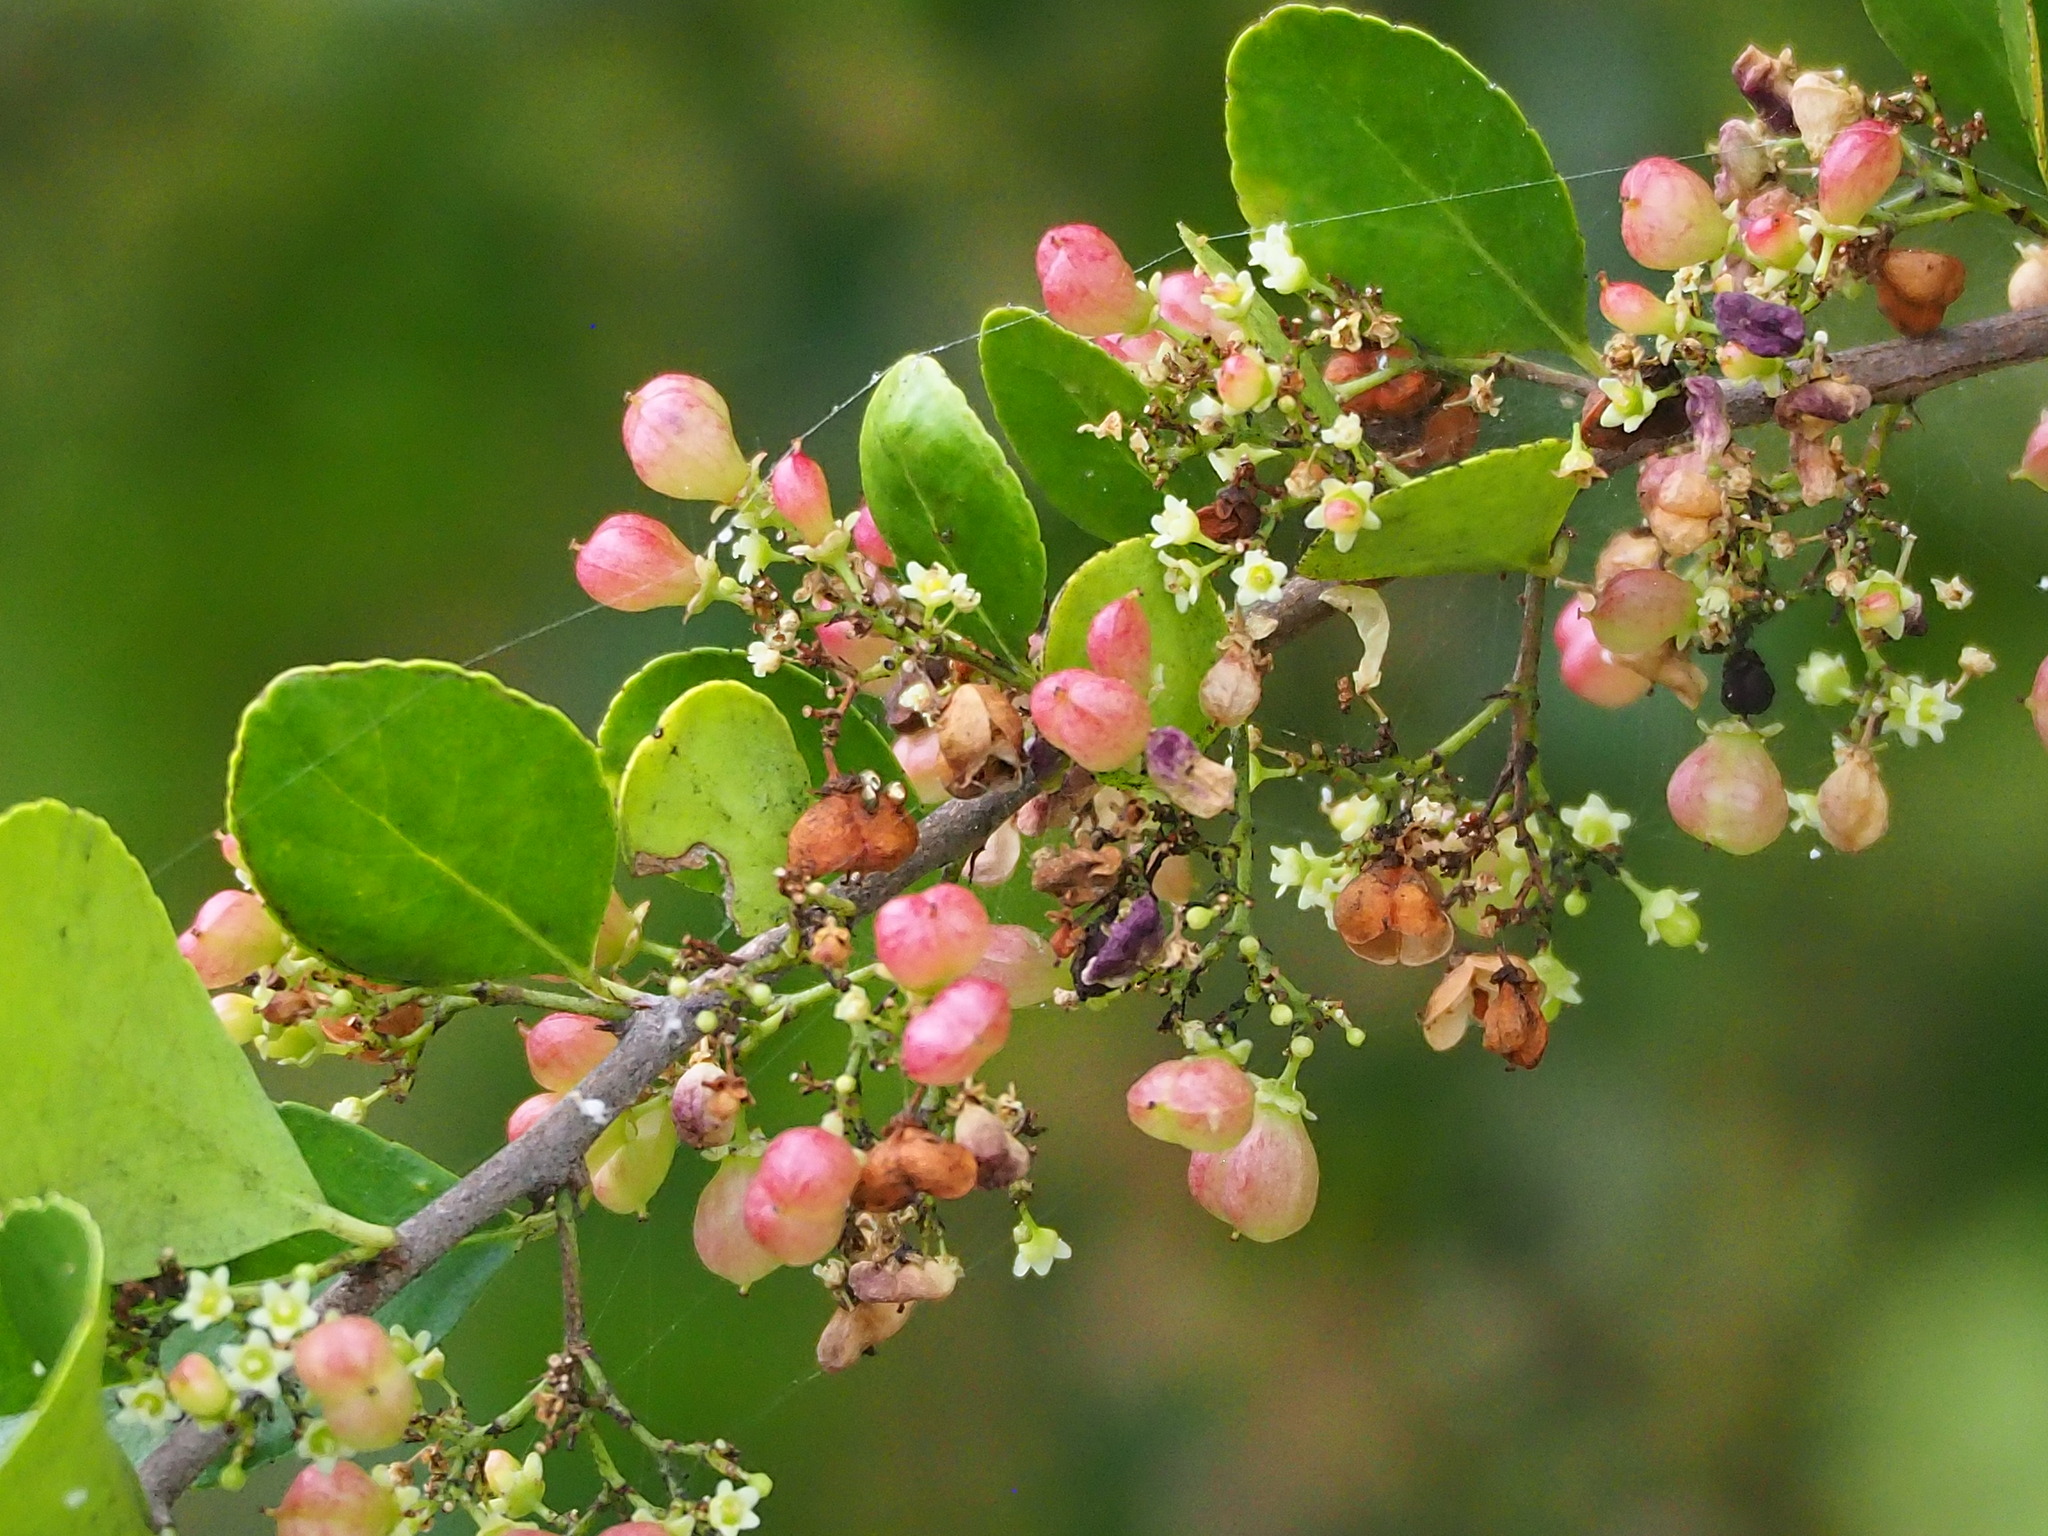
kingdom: Plantae
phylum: Tracheophyta
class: Magnoliopsida
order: Celastrales
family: Celastraceae
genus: Gymnosporia
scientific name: Gymnosporia diversifolia
